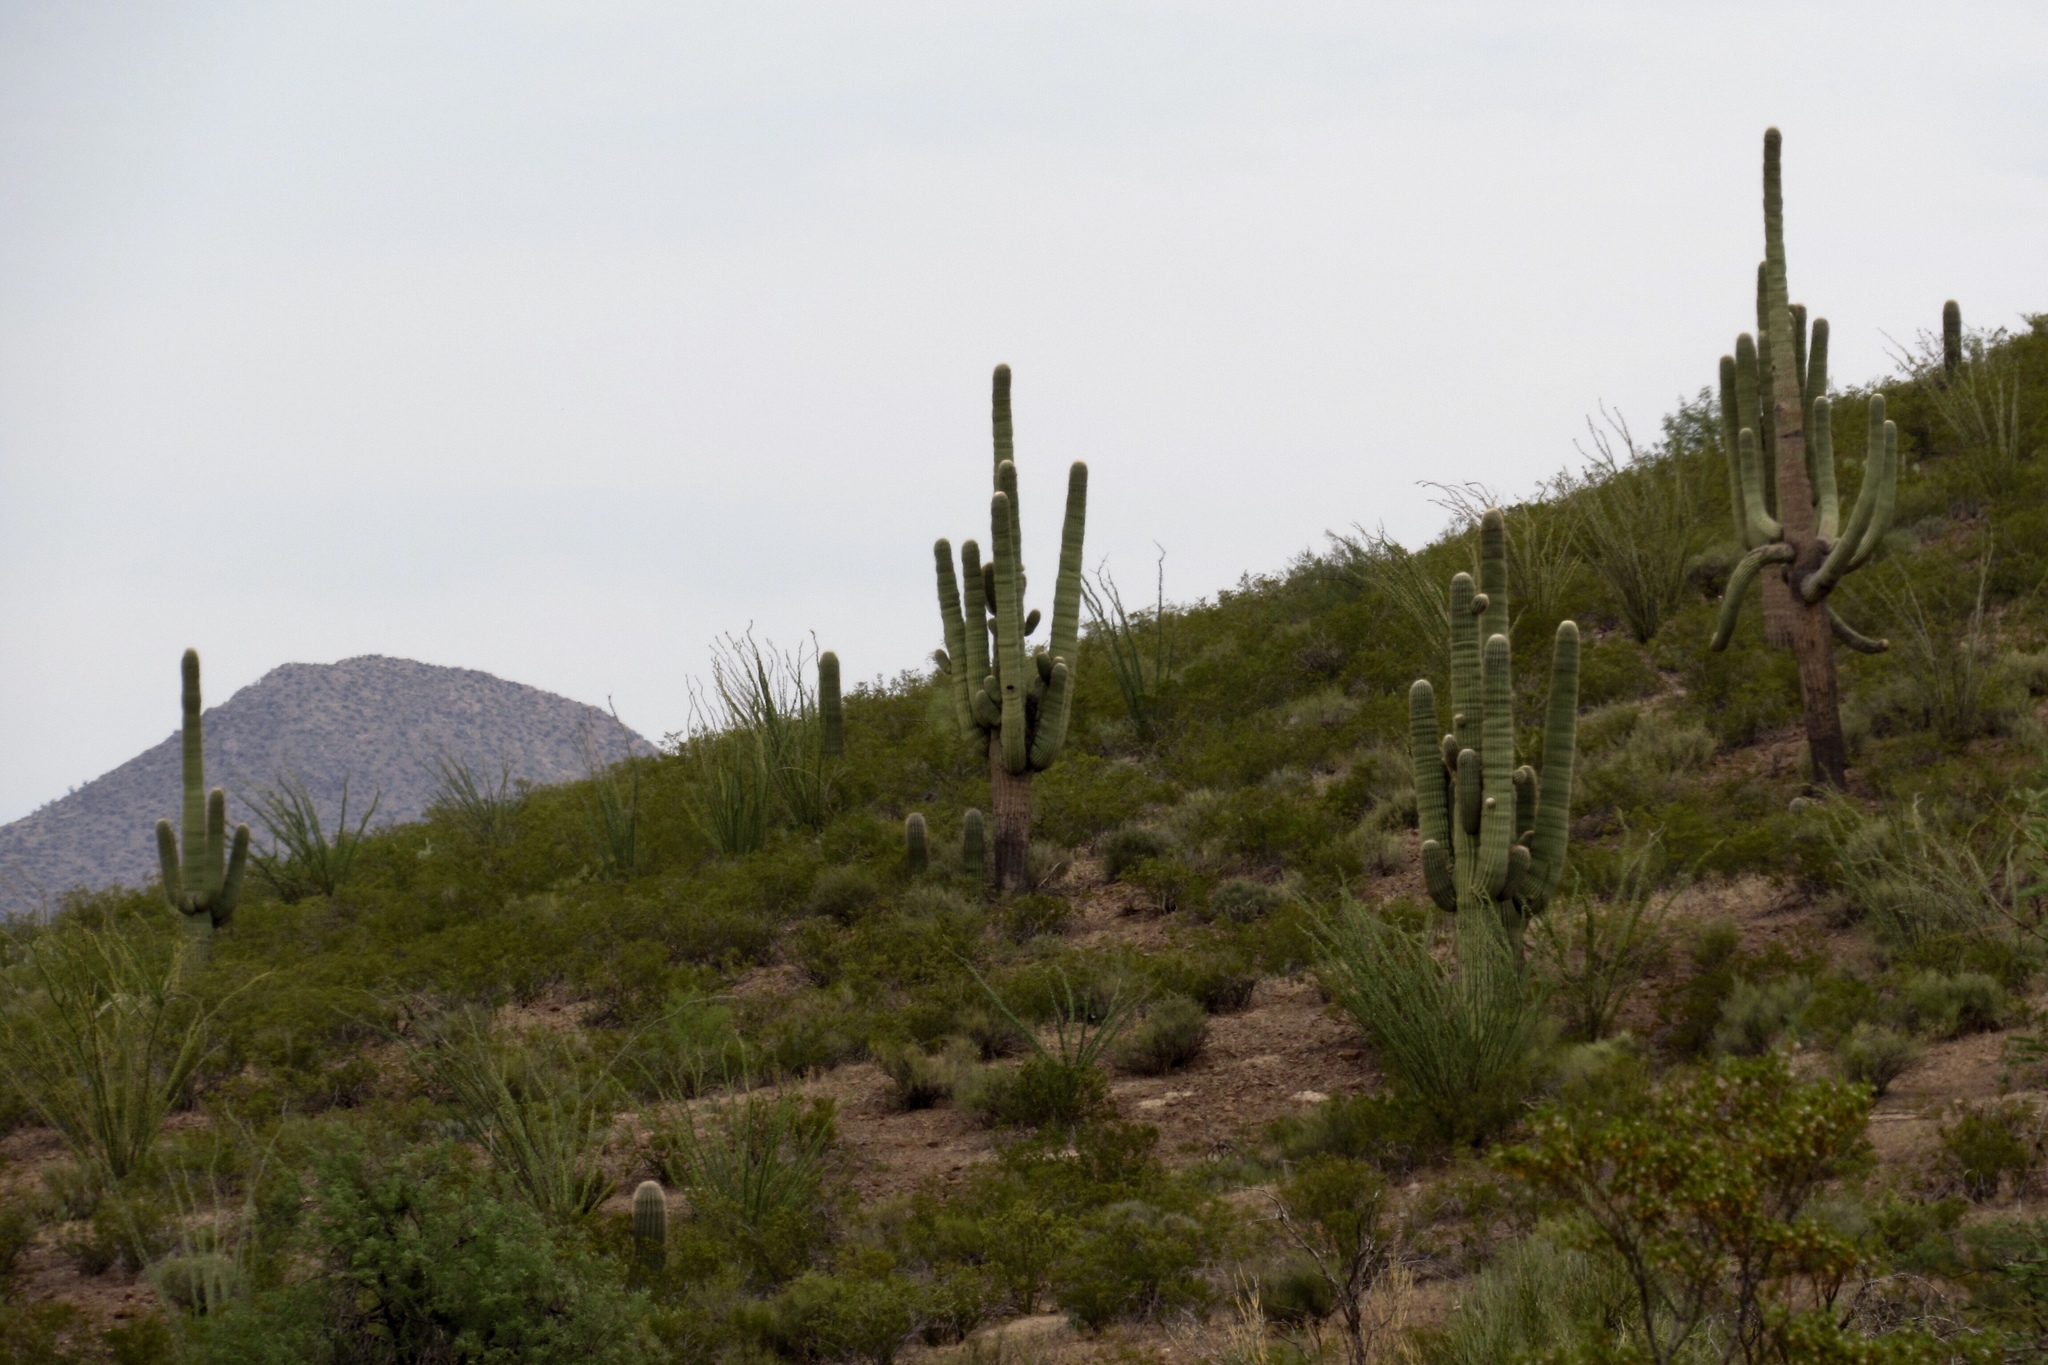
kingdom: Plantae
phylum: Tracheophyta
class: Magnoliopsida
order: Caryophyllales
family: Cactaceae
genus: Carnegiea
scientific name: Carnegiea gigantea
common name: Saguaro
